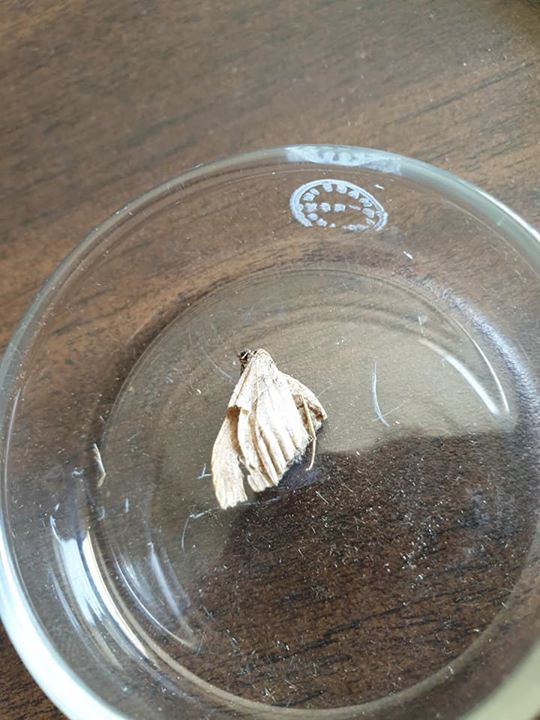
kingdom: Animalia
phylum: Arthropoda
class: Insecta
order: Lepidoptera
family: Geometridae
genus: Austrocidaria
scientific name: Austrocidaria gobiata
